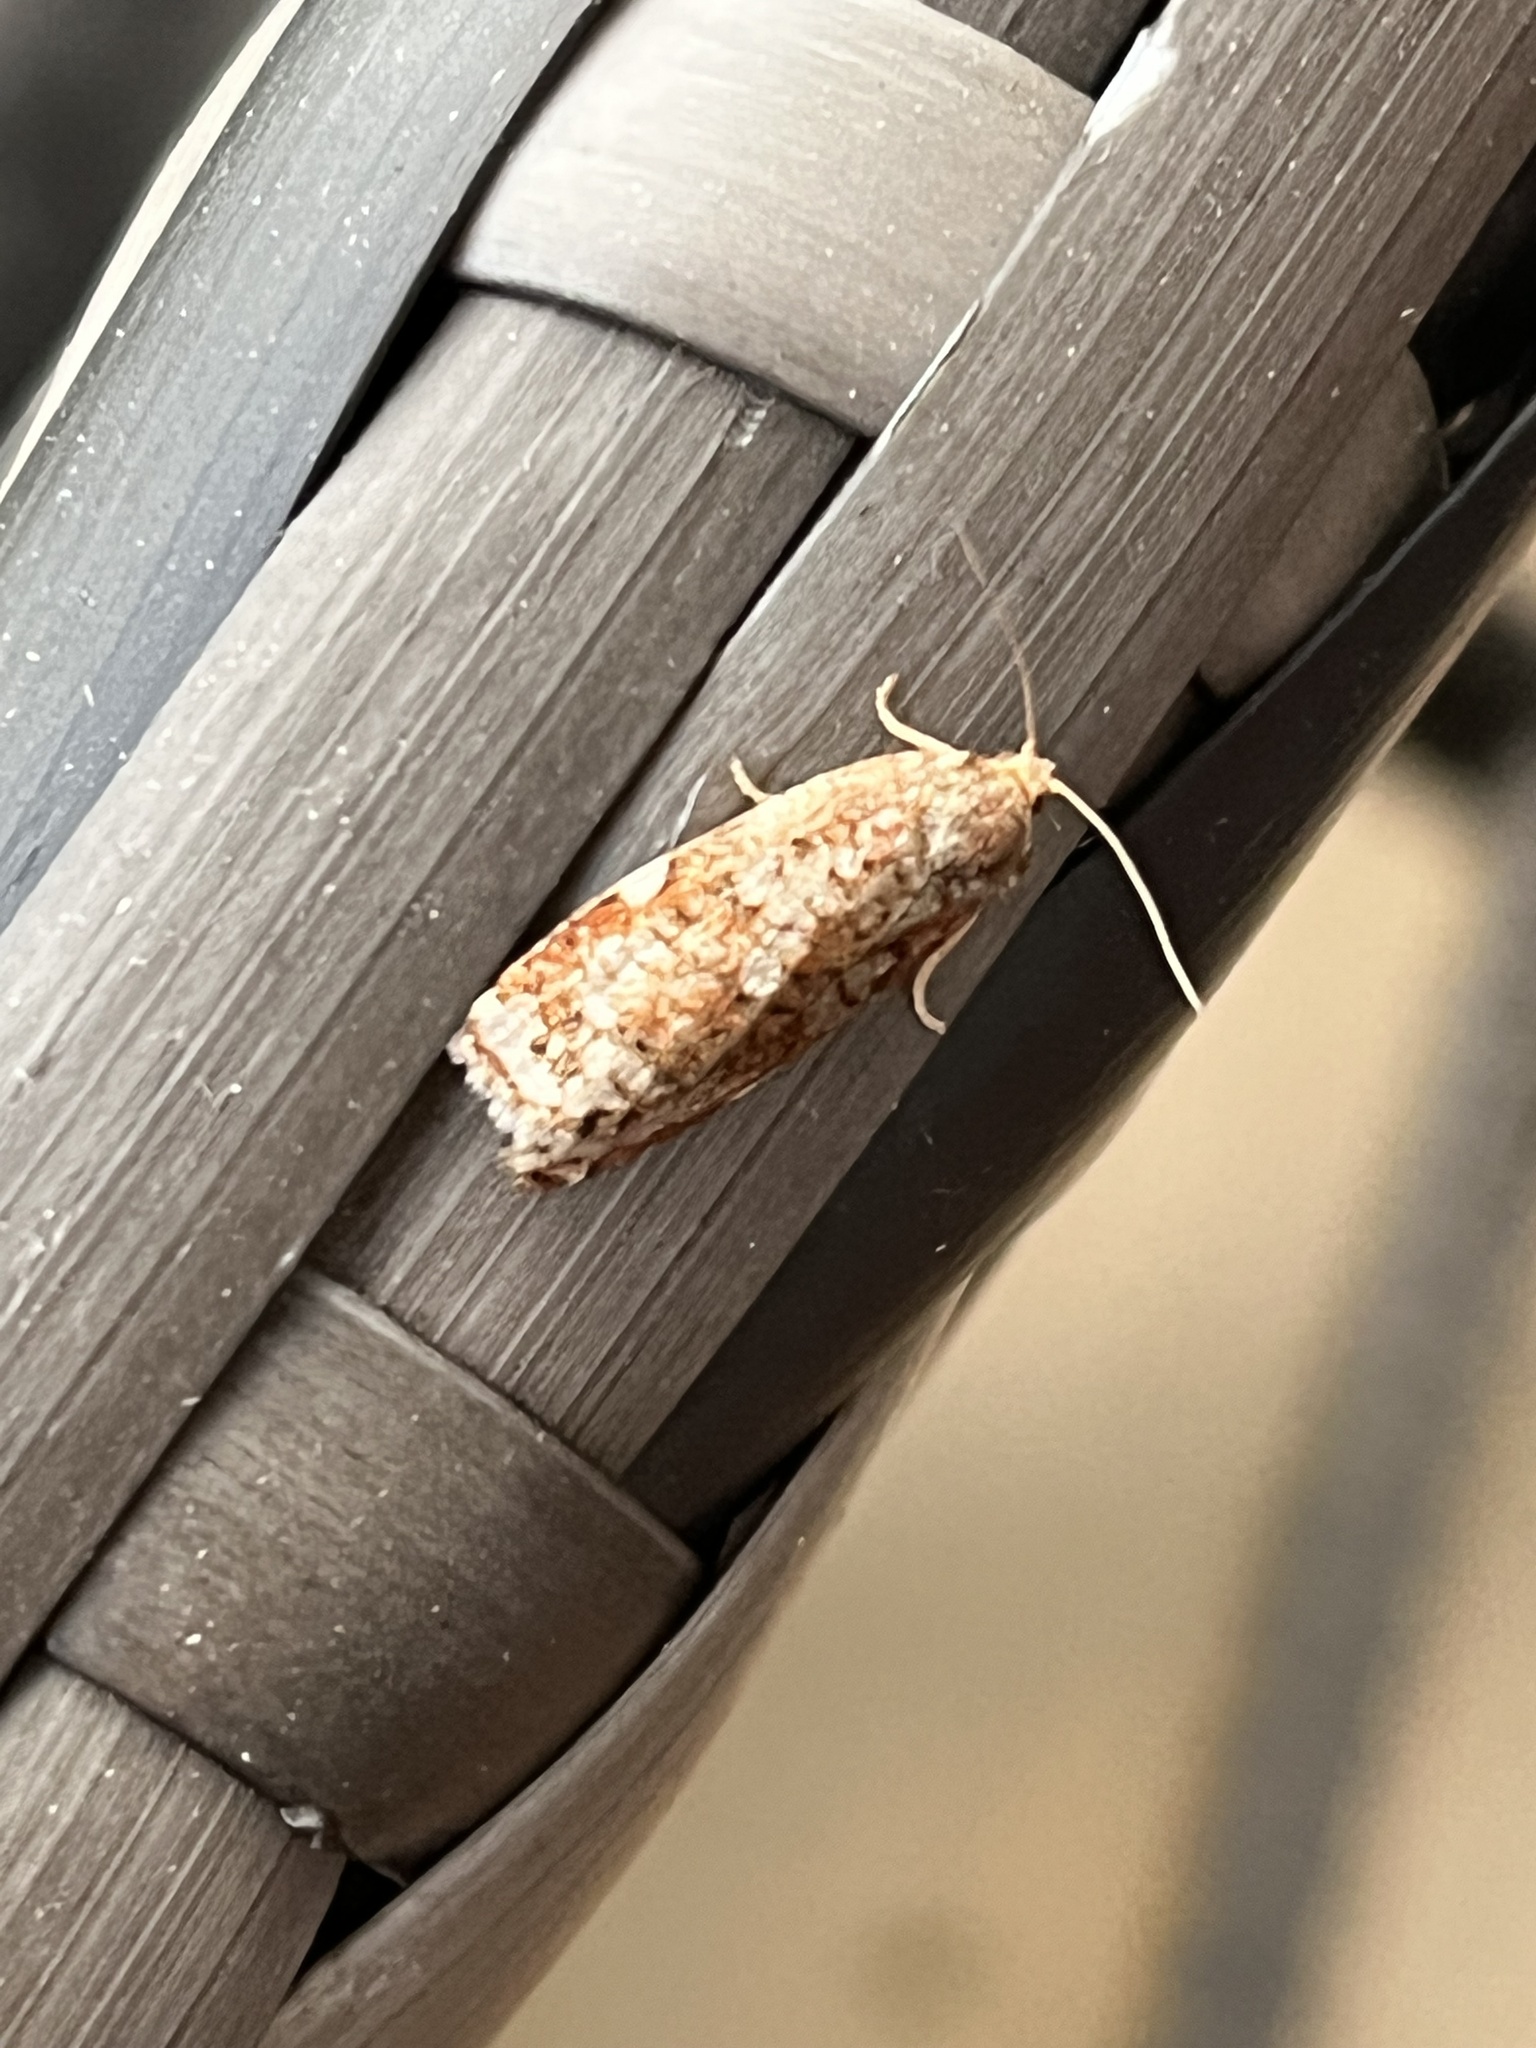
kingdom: Animalia
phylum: Arthropoda
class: Insecta
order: Lepidoptera
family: Tortricidae
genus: Archips
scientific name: Archips argyrospila
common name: Fruit-tree leafroller moth
